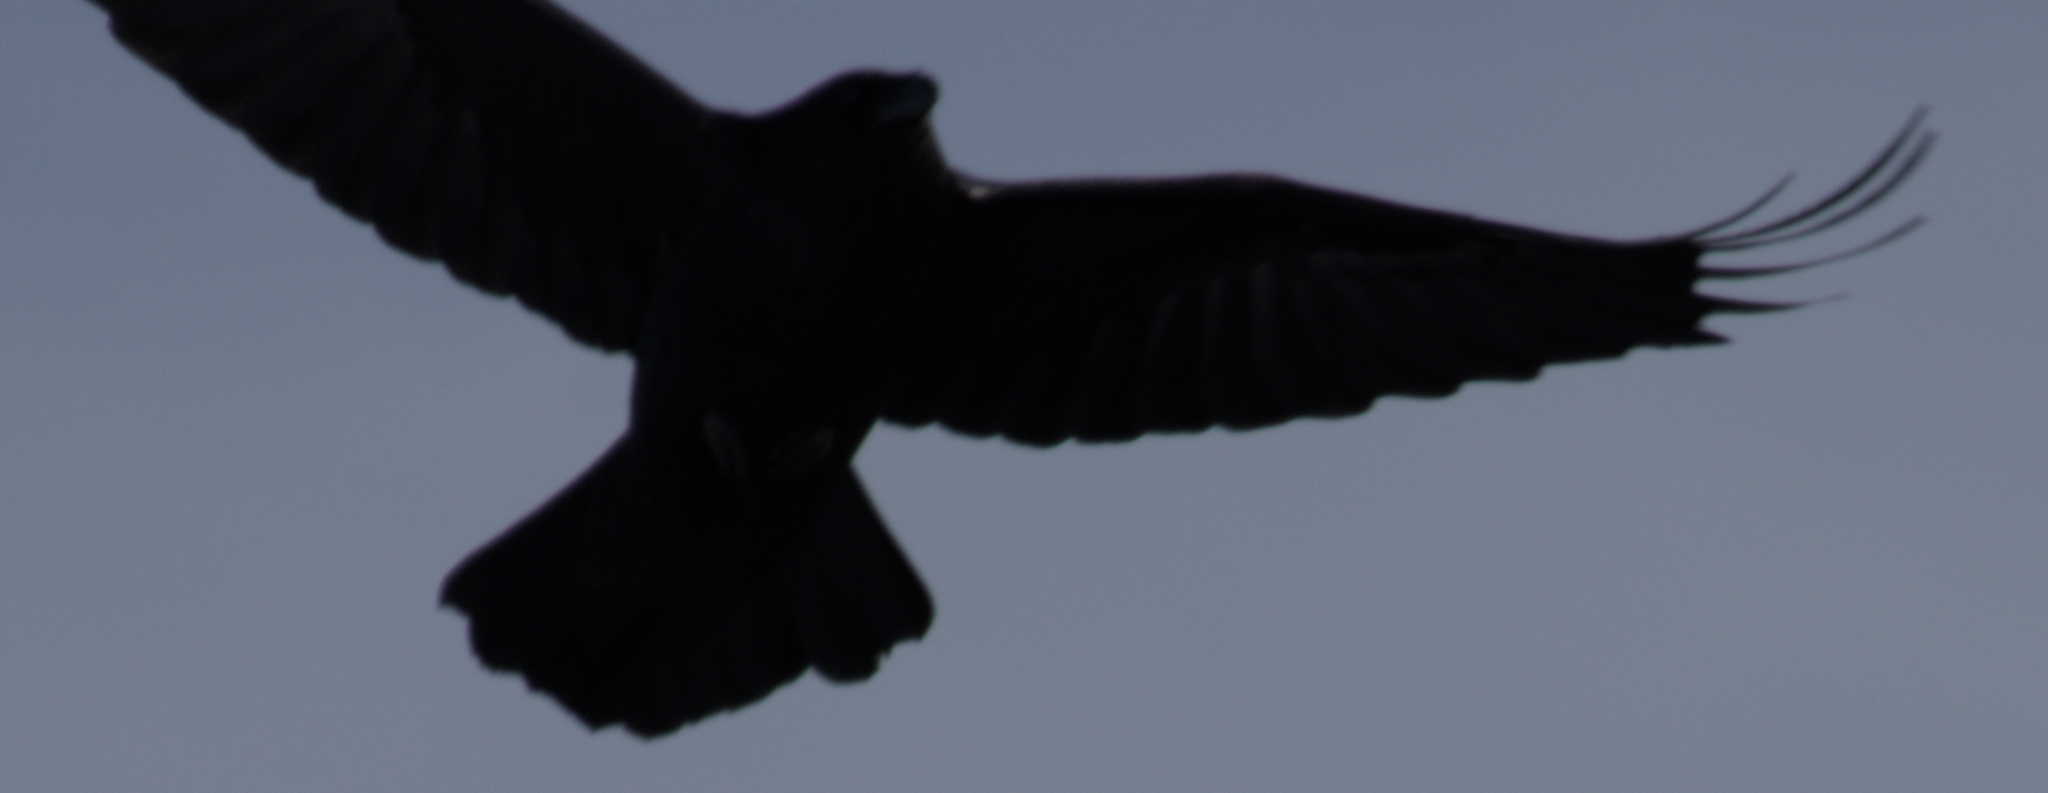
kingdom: Animalia
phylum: Chordata
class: Aves
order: Passeriformes
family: Corvidae
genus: Corvus
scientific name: Corvus corax
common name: Common raven
